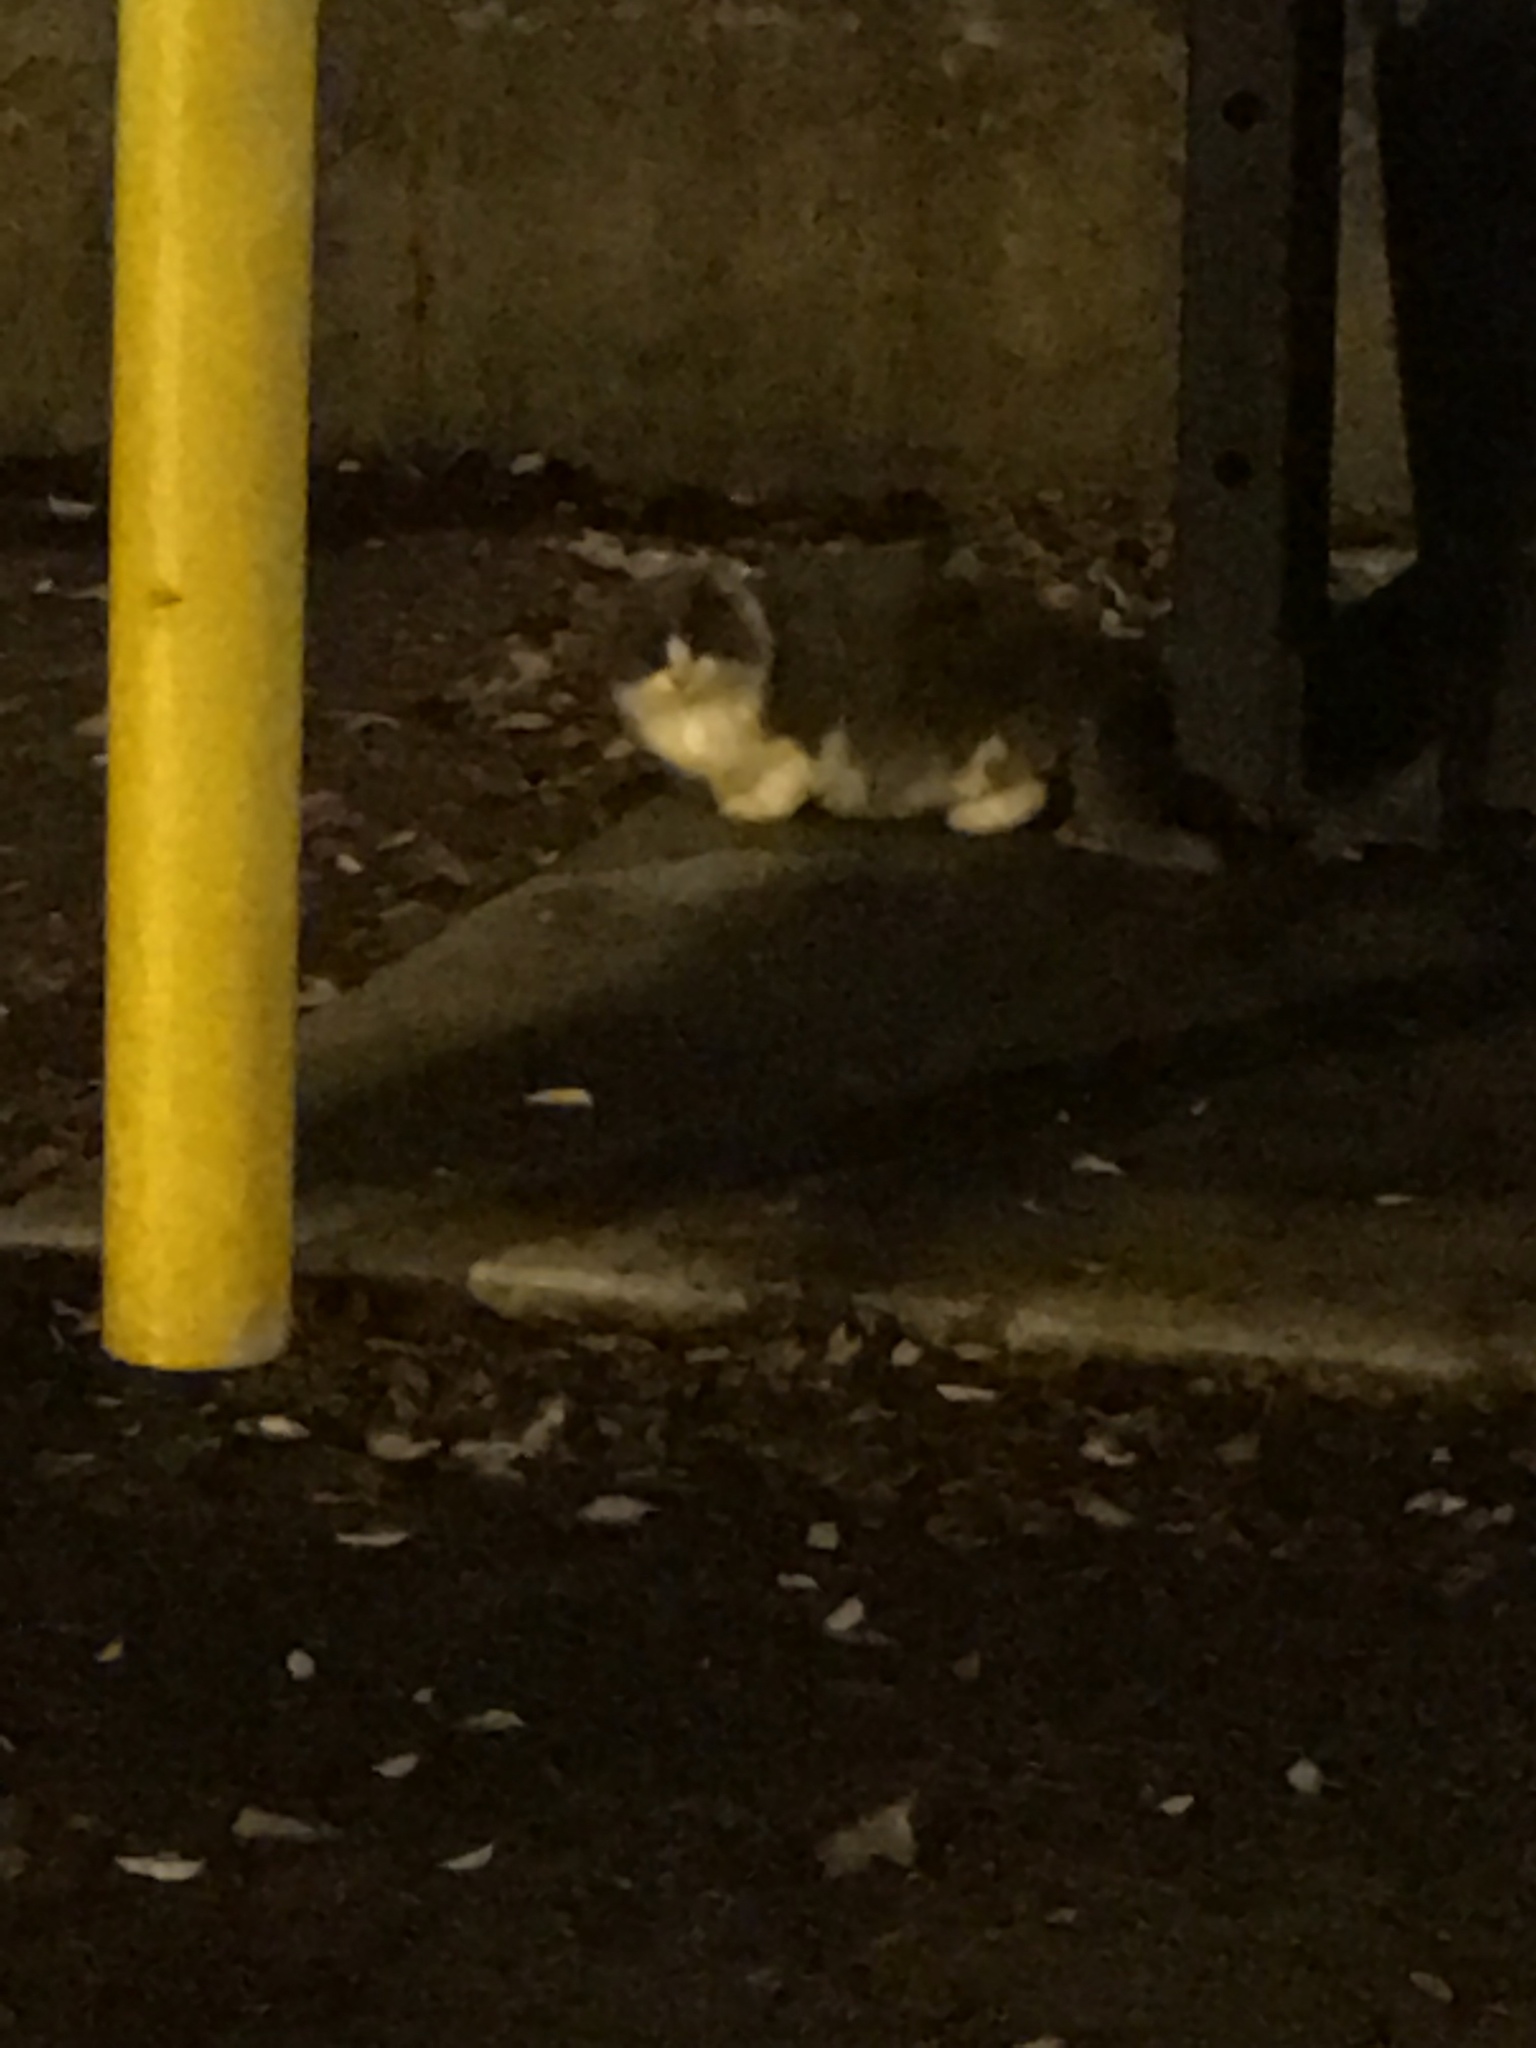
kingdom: Animalia
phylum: Chordata
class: Mammalia
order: Carnivora
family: Felidae
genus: Felis
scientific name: Felis catus
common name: Domestic cat
